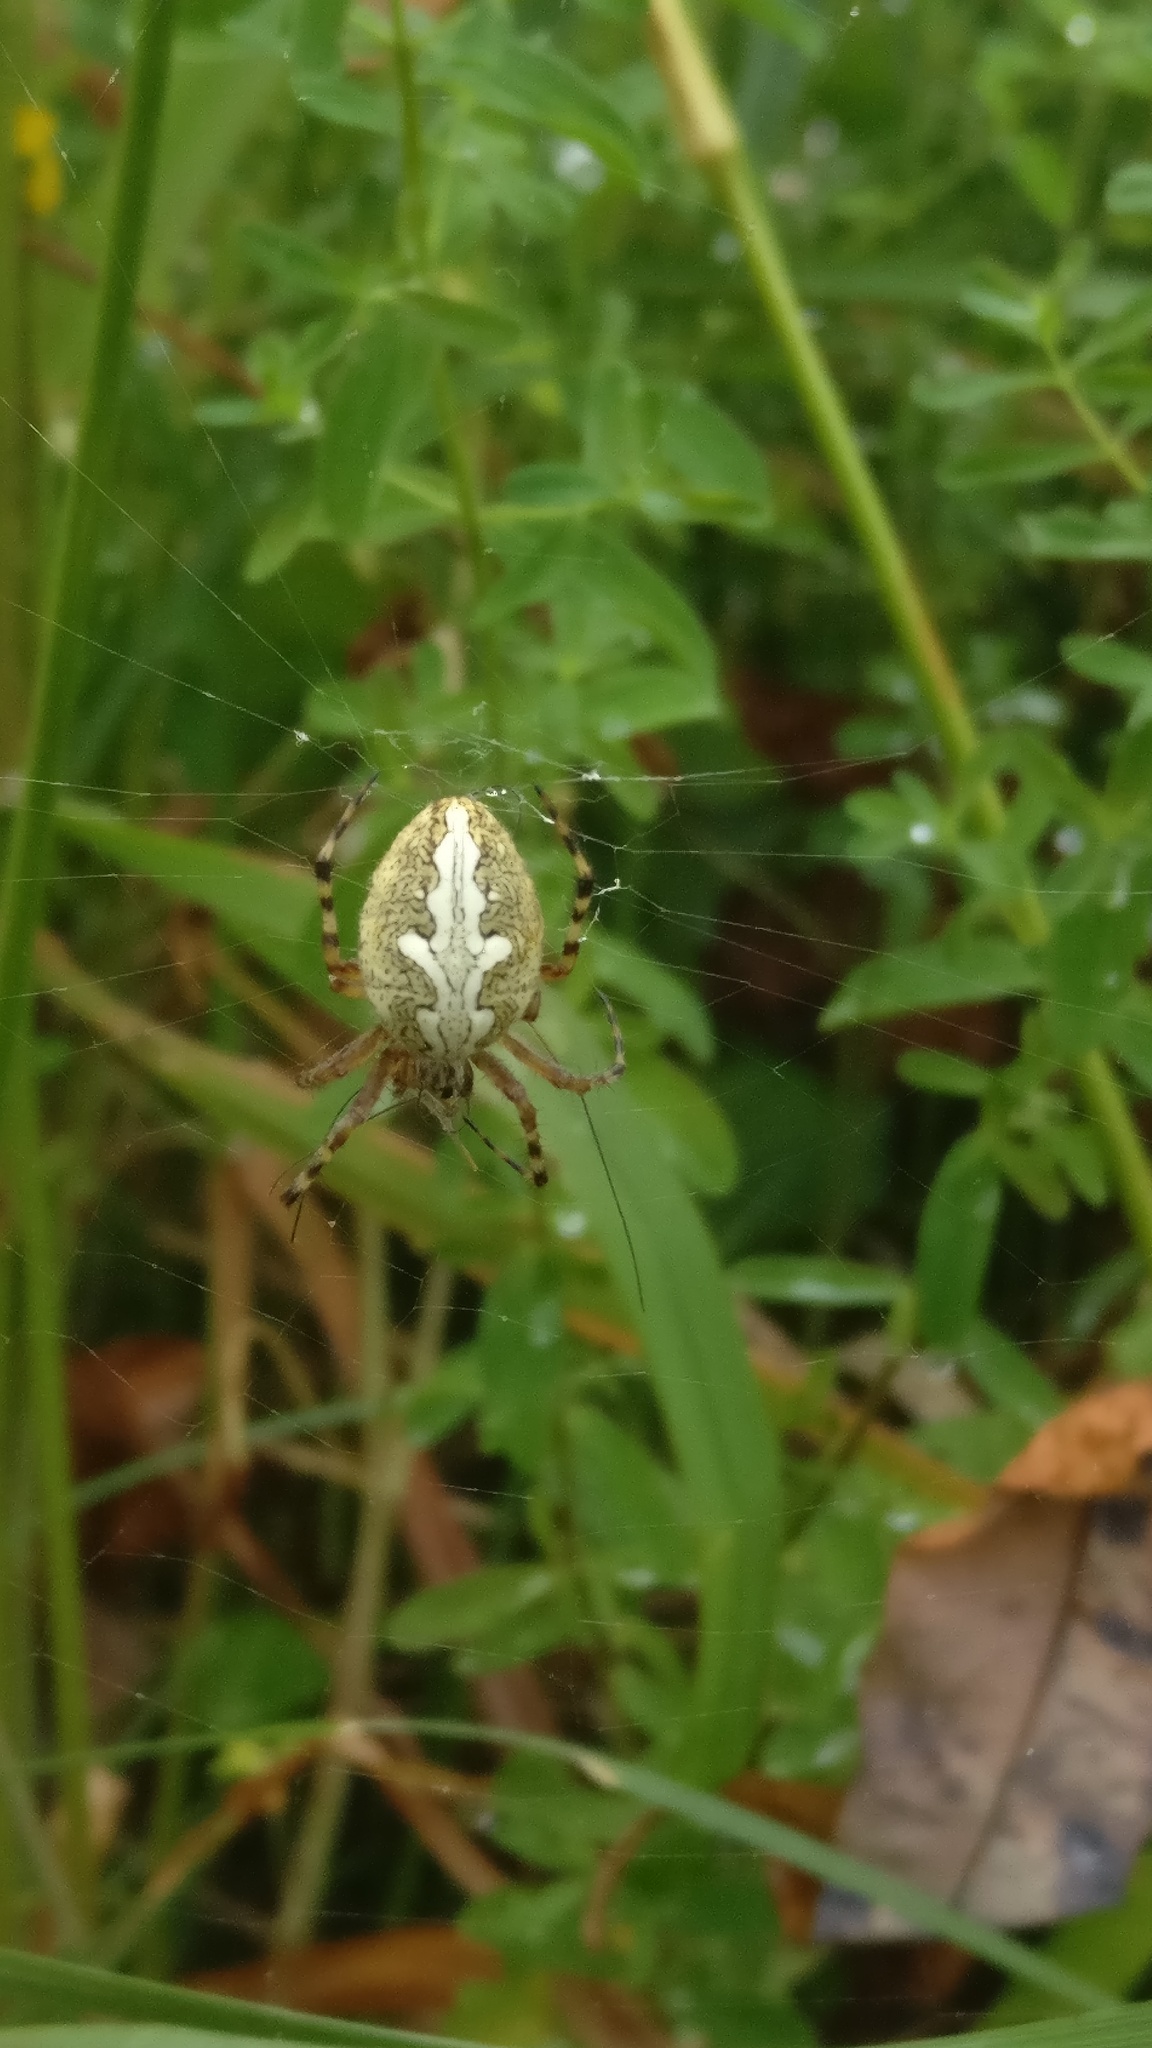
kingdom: Animalia
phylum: Arthropoda
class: Arachnida
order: Araneae
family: Araneidae
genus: Aculepeira
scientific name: Aculepeira ceropegia
